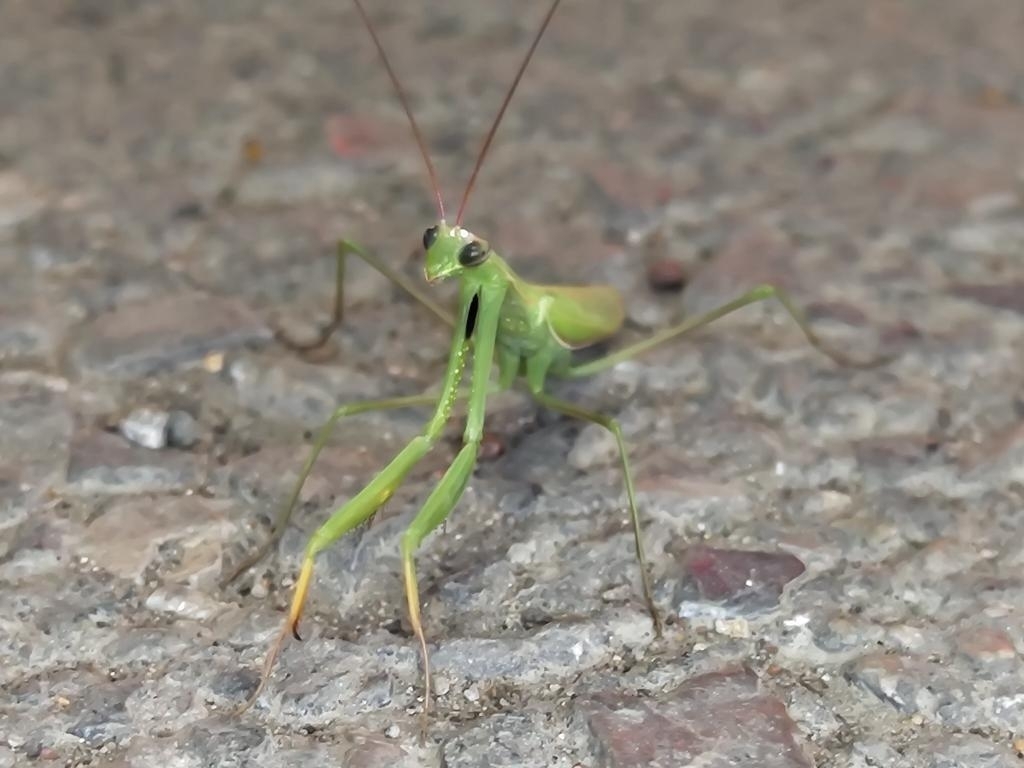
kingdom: Animalia
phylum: Arthropoda
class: Insecta
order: Mantodea
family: Mantidae
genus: Mantis
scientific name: Mantis religiosa
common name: Praying mantis
